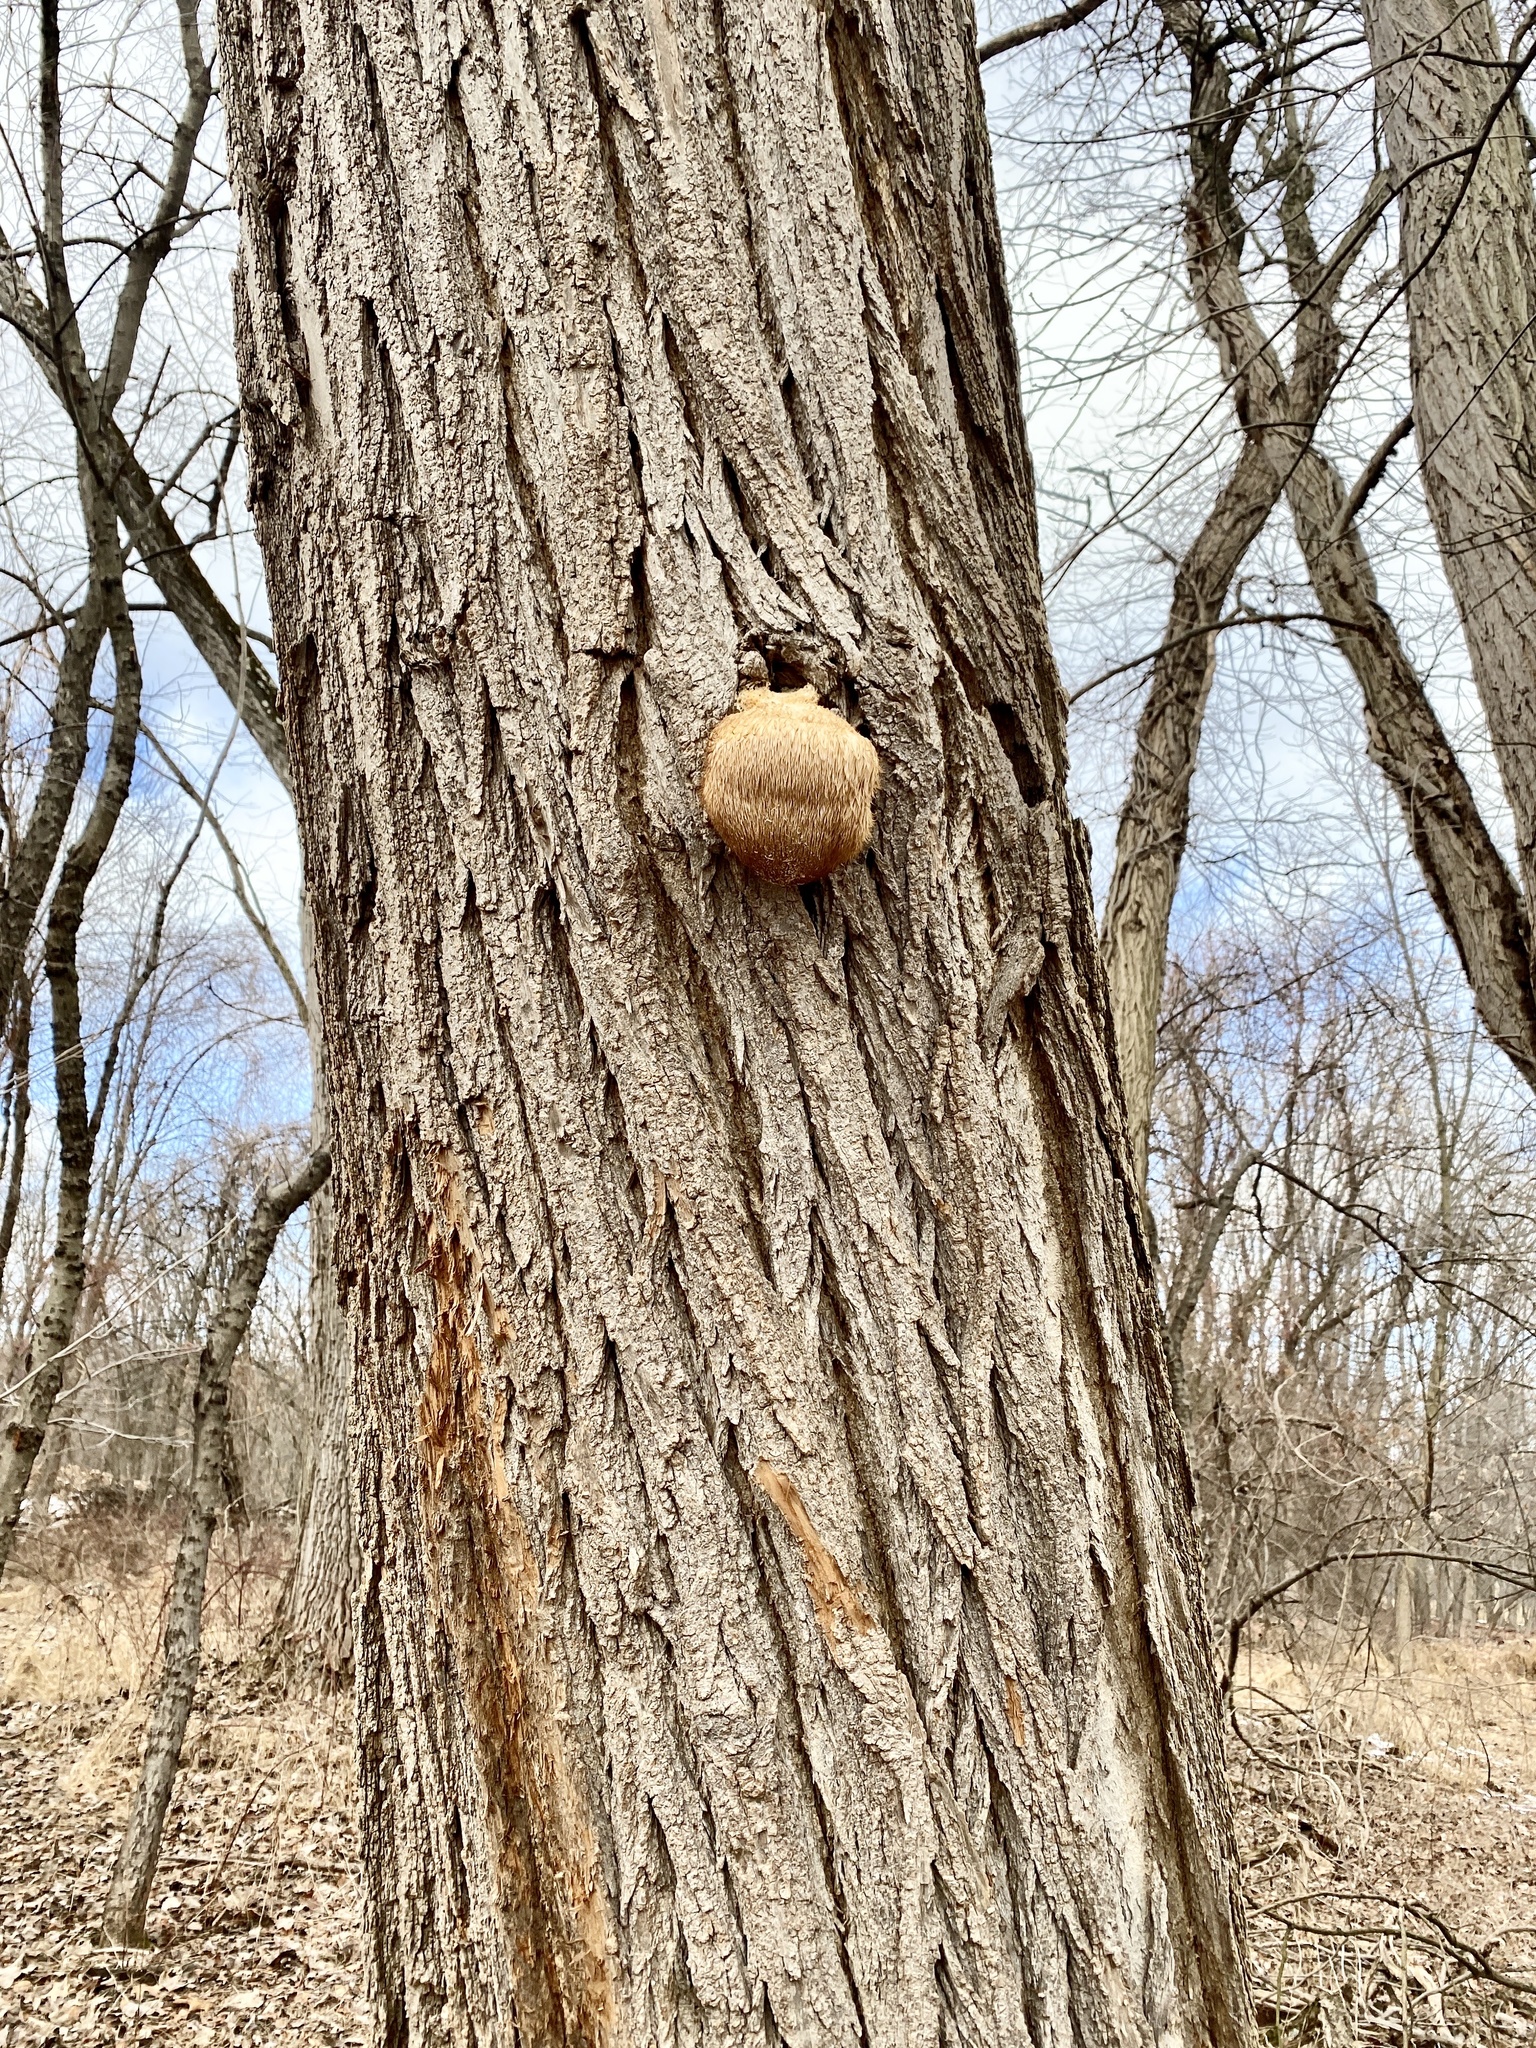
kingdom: Fungi
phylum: Basidiomycota
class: Agaricomycetes
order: Russulales
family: Hericiaceae
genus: Hericium
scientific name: Hericium erinaceus
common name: Bearded tooth
